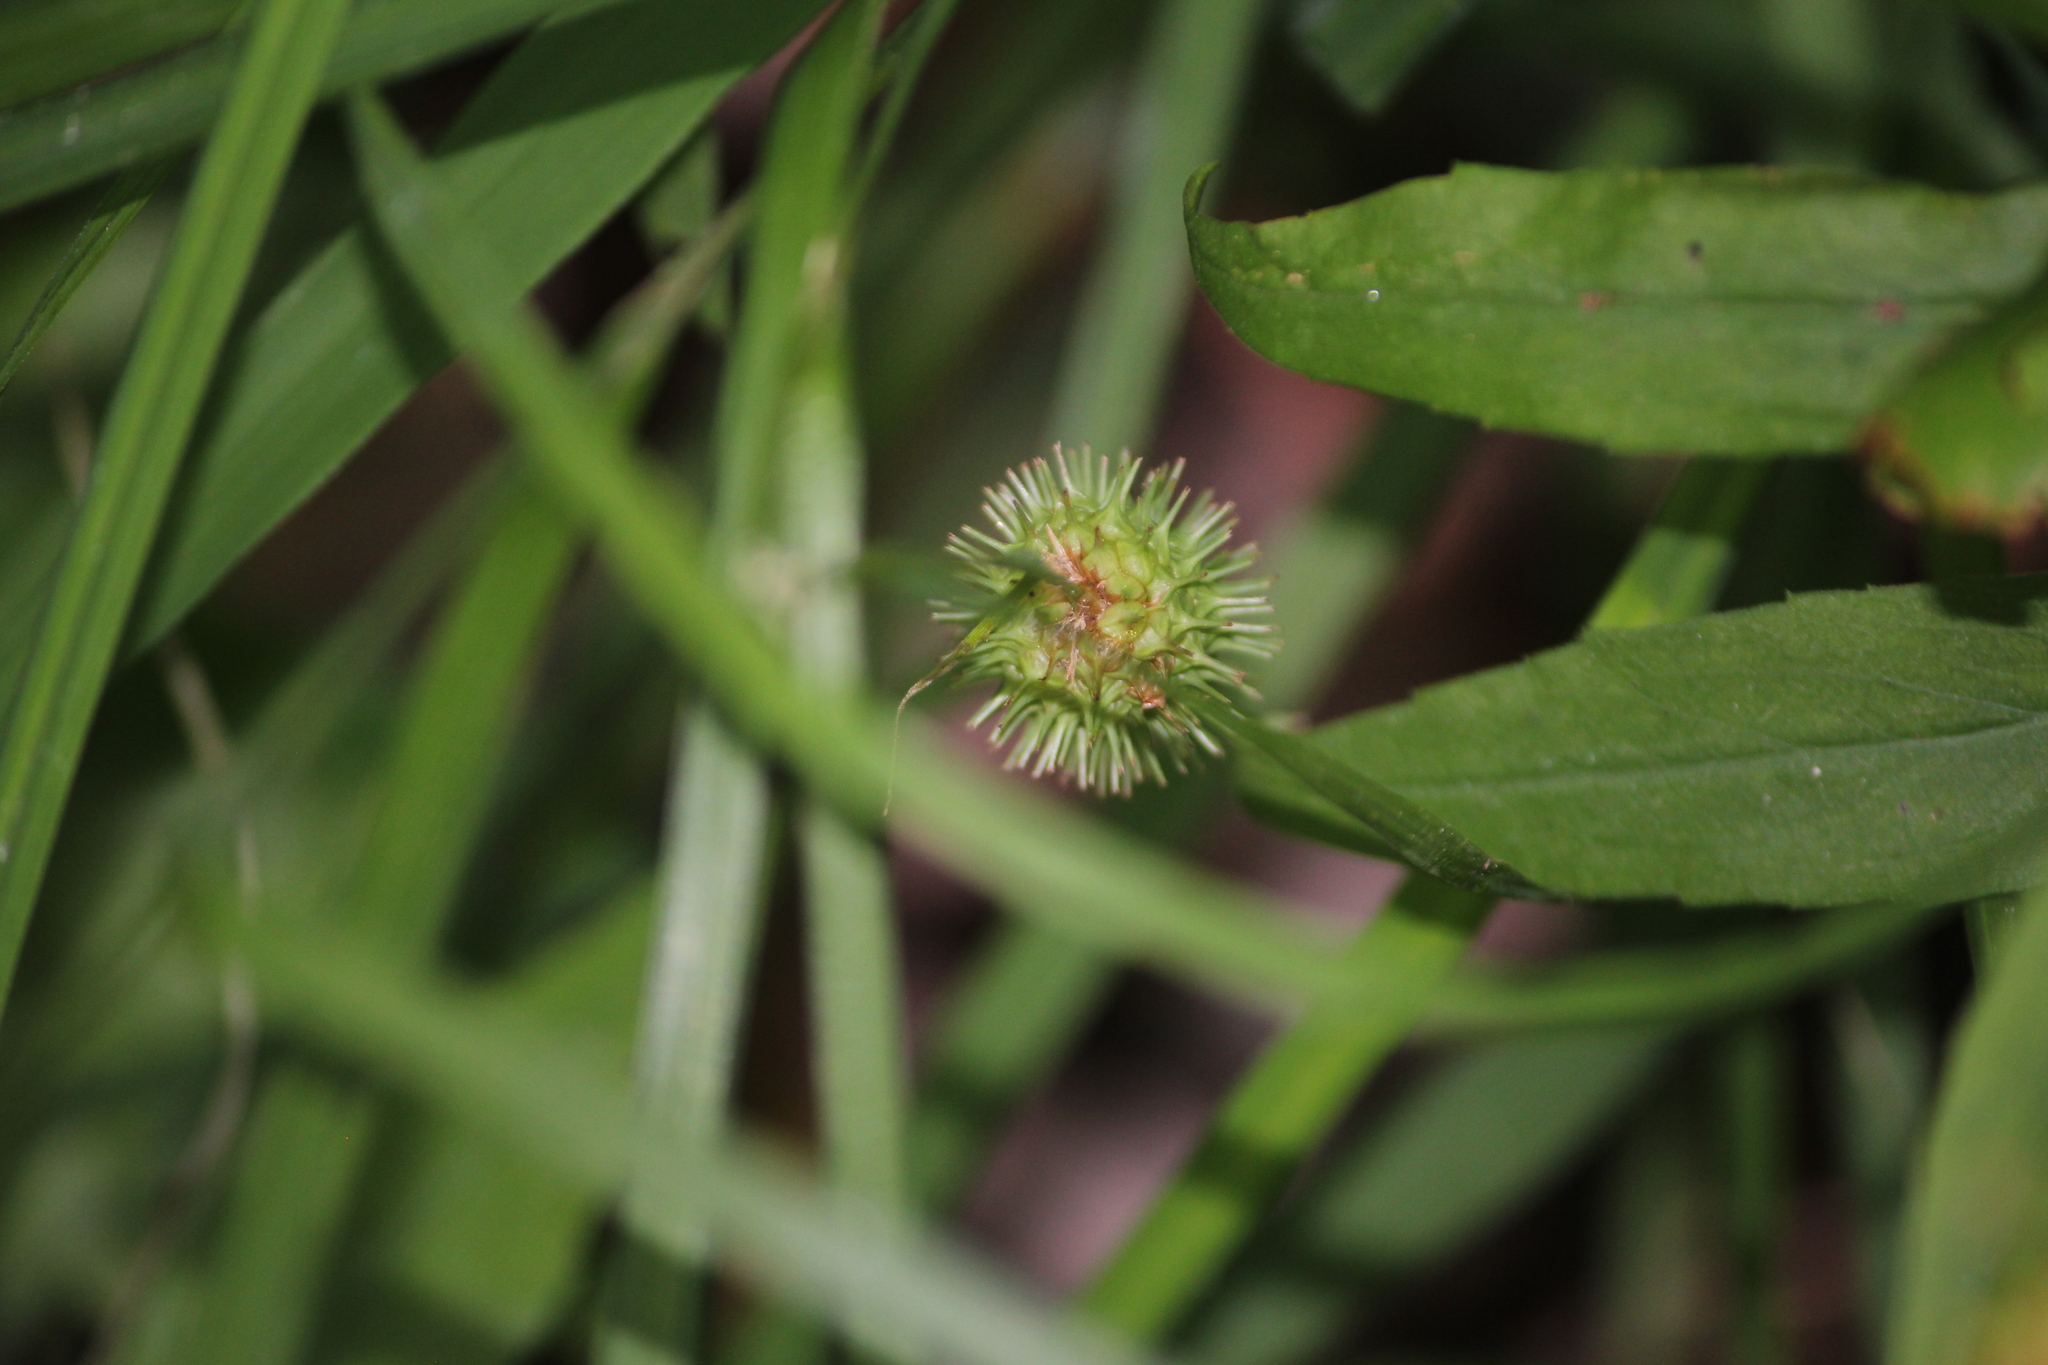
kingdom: Plantae
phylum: Tracheophyta
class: Liliopsida
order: Poales
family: Cyperaceae
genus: Carex
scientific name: Carex squarrosa
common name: Narrow-leaved cattail sedge
